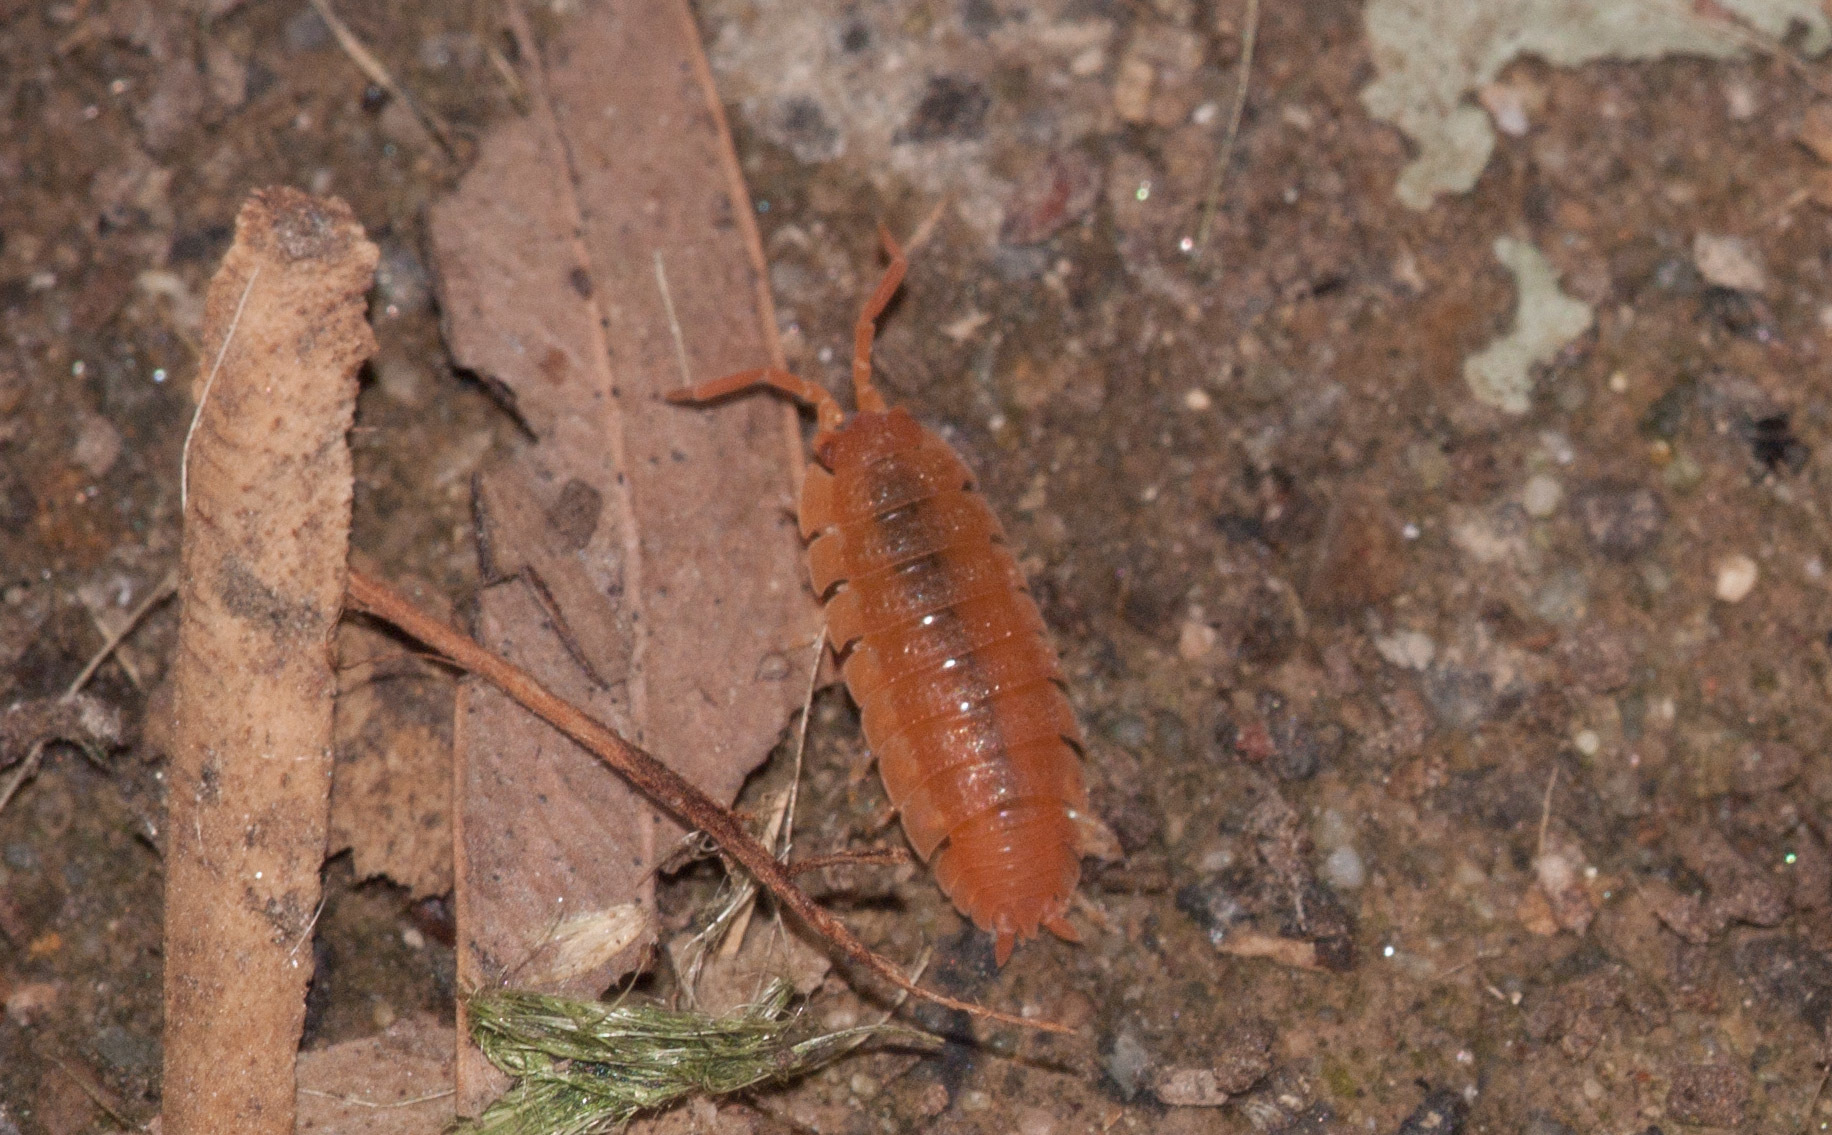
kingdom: Animalia
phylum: Arthropoda
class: Malacostraca
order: Isopoda
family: Porcellionidae
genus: Porcellio
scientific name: Porcellio scaber
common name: Common rough woodlouse
